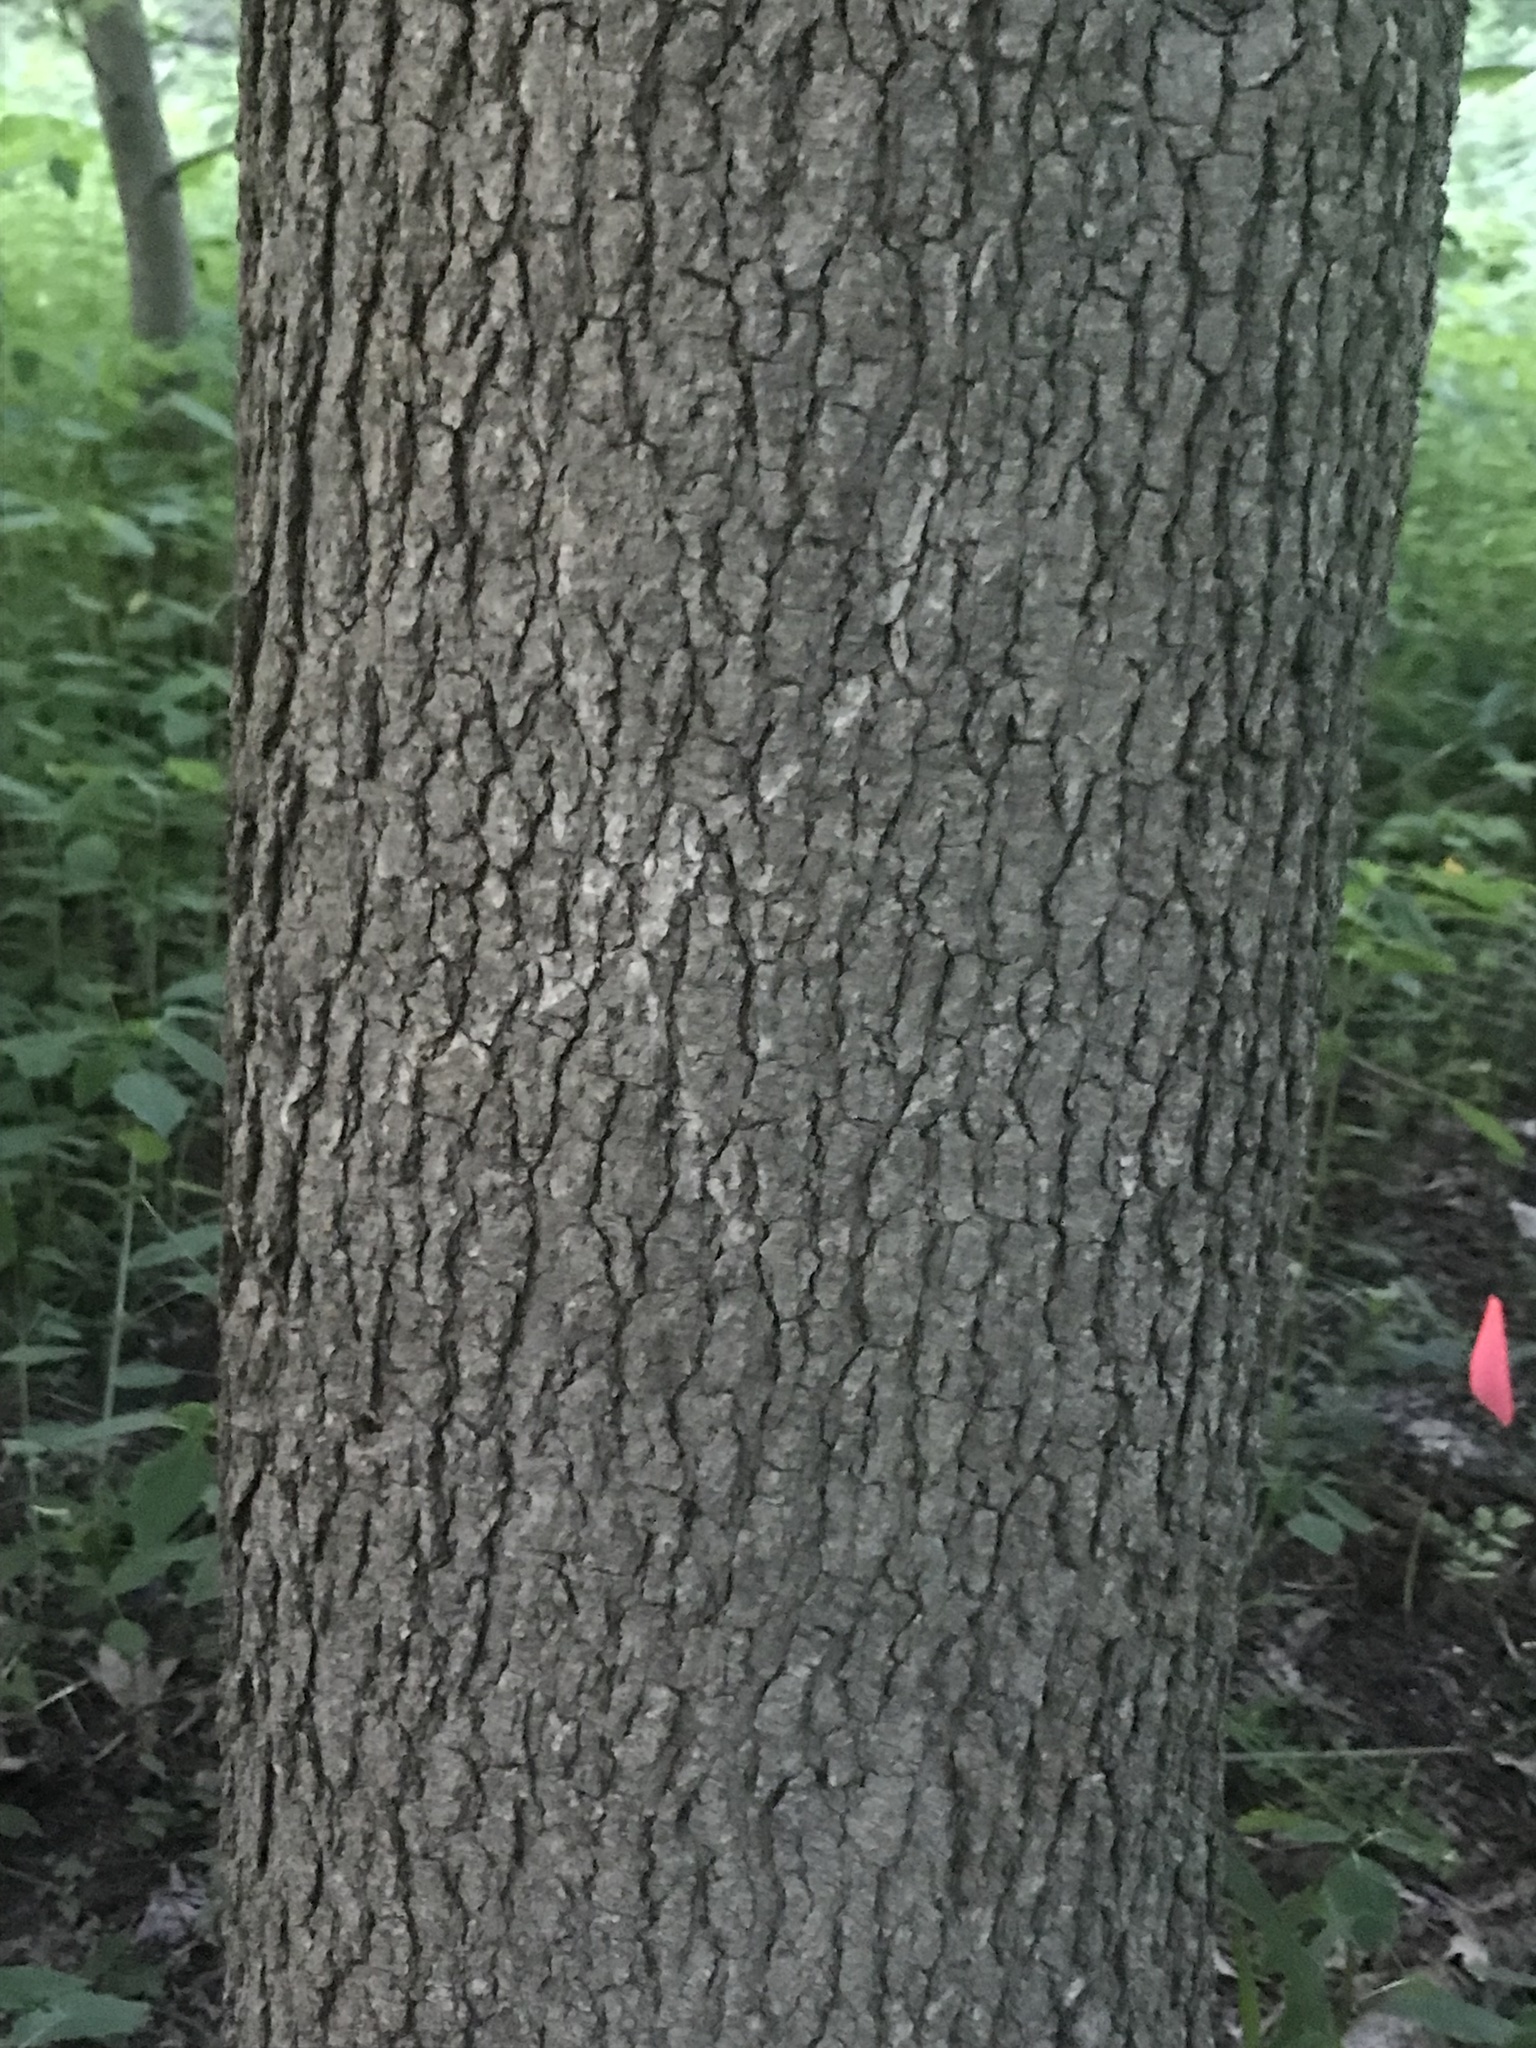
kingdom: Plantae
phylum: Tracheophyta
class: Magnoliopsida
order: Saxifragales
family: Altingiaceae
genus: Liquidambar
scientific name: Liquidambar styraciflua
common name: Sweet gum
